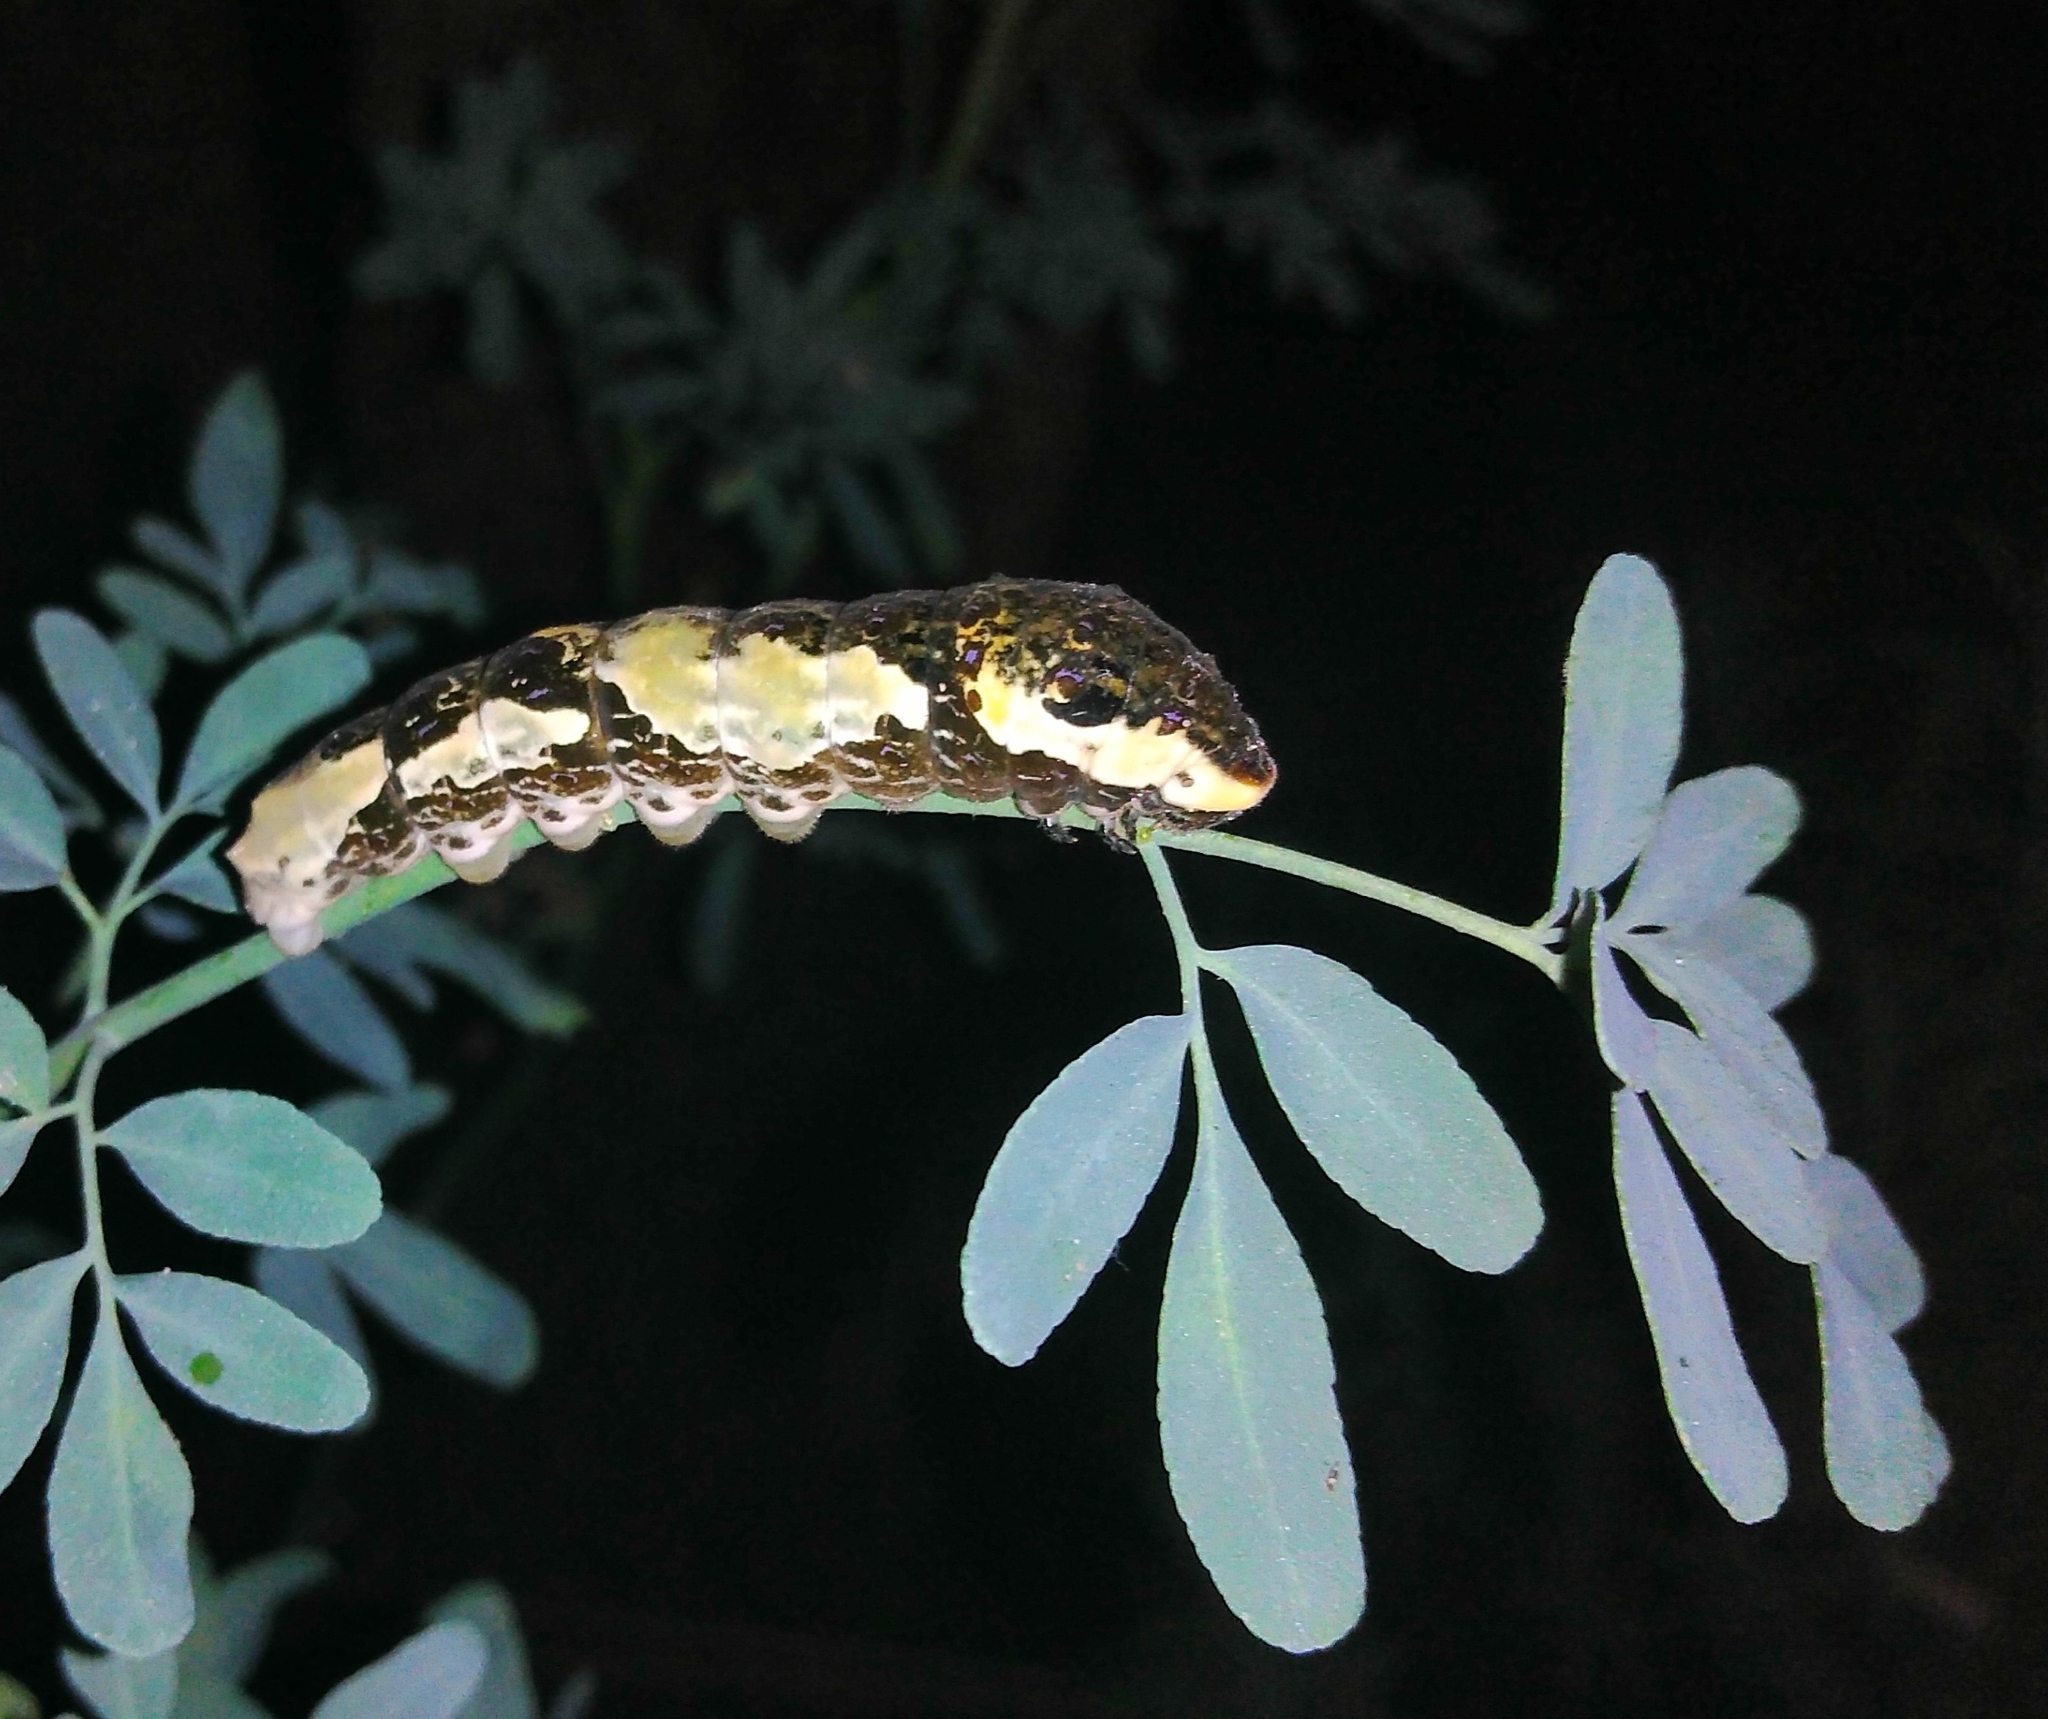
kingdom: Animalia
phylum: Arthropoda
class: Insecta
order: Lepidoptera
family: Papilionidae
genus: Papilio
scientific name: Papilio astyalus
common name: Astyalus swallowtail
